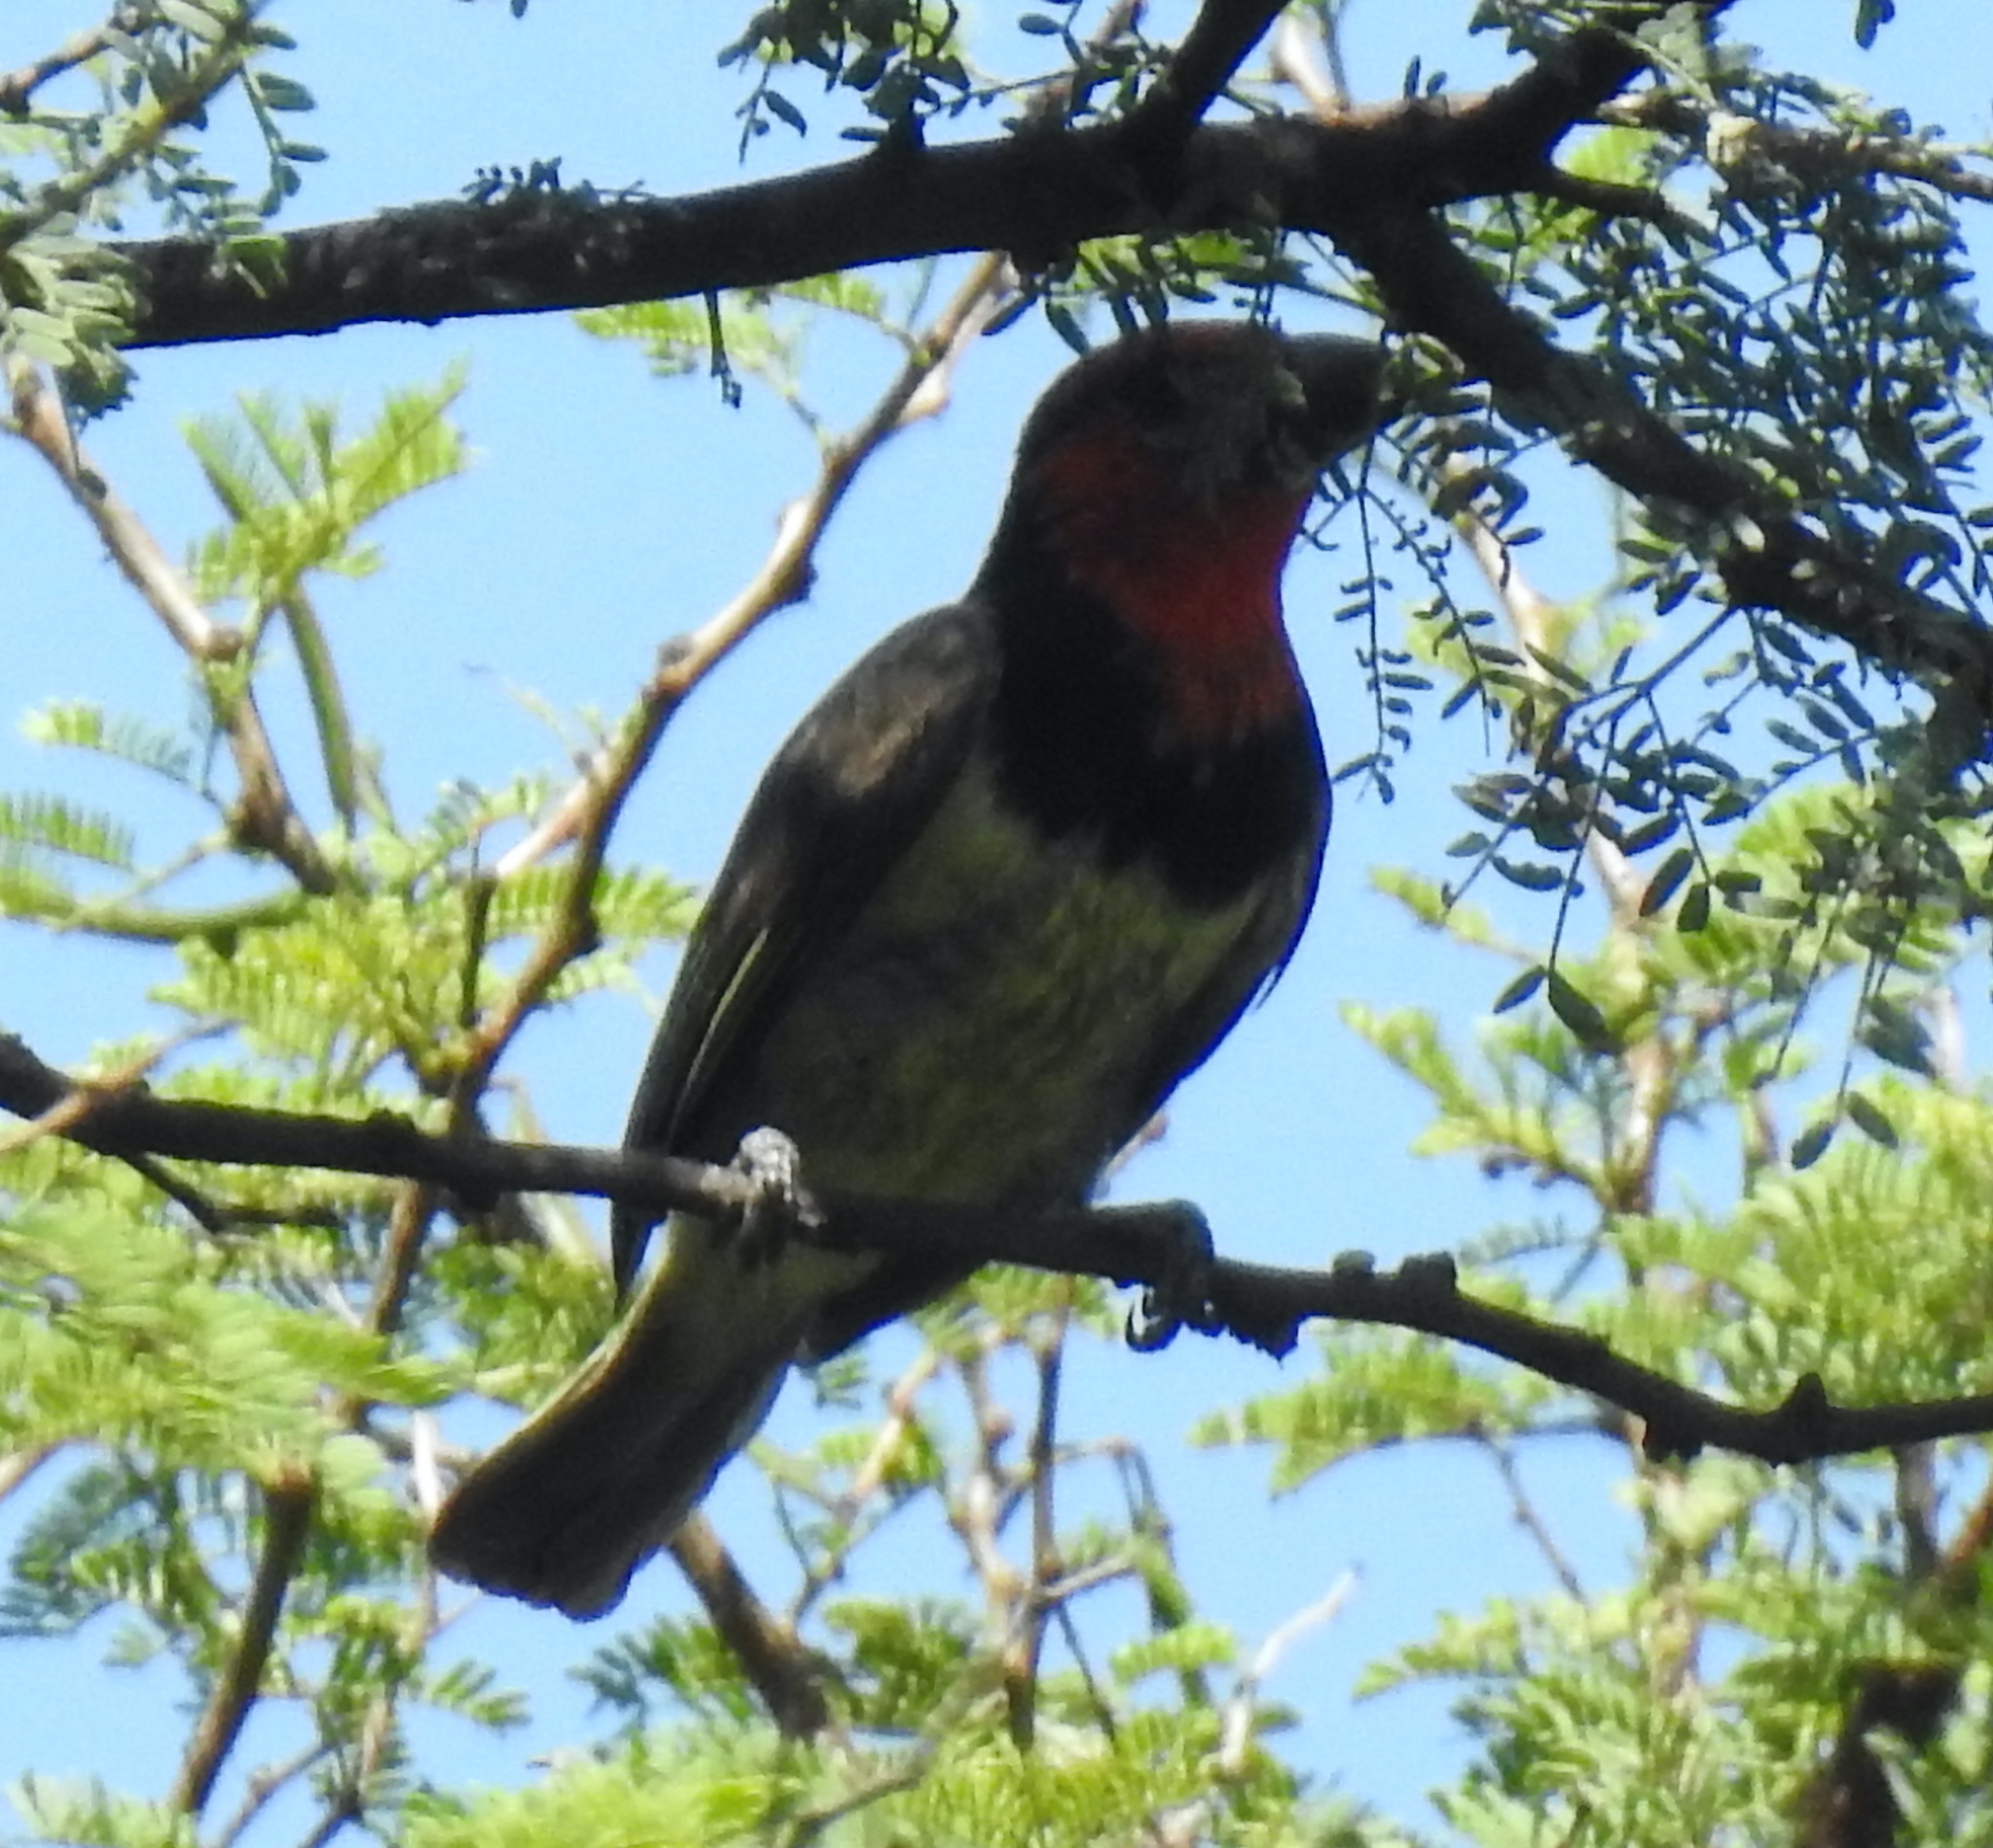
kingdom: Animalia
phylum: Chordata
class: Aves
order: Piciformes
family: Lybiidae
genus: Lybius
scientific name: Lybius torquatus
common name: Black-collared barbet
